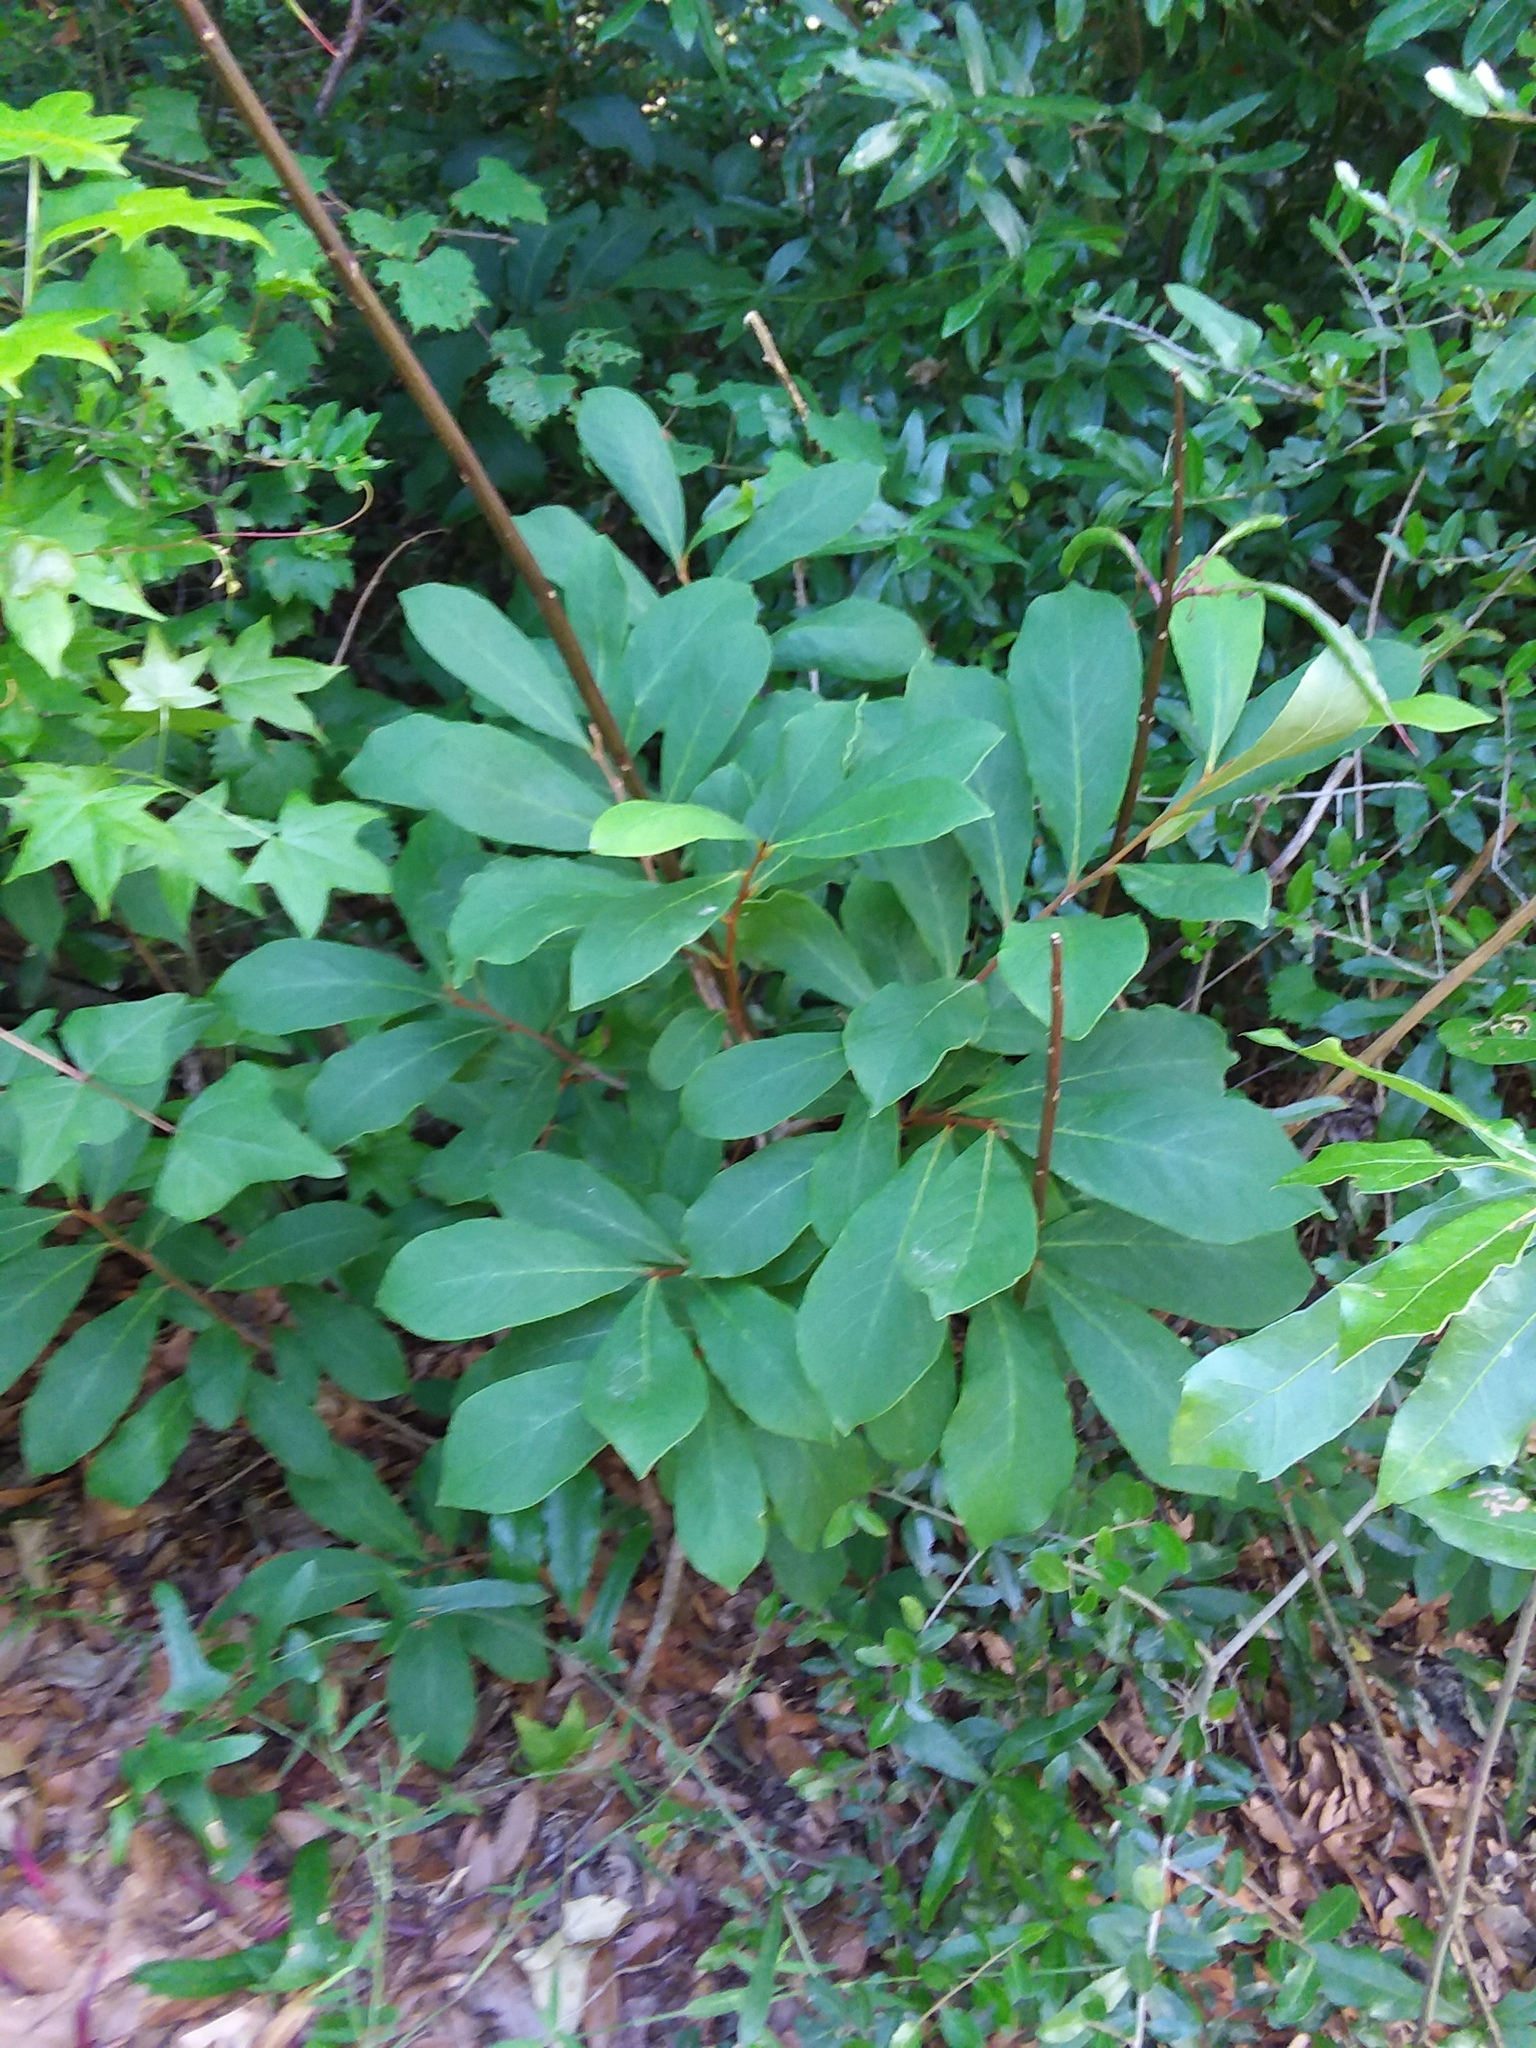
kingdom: Plantae
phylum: Tracheophyta
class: Magnoliopsida
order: Magnoliales
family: Annonaceae
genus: Asimina
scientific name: Asimina parviflora
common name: Dwarf pawpaw
